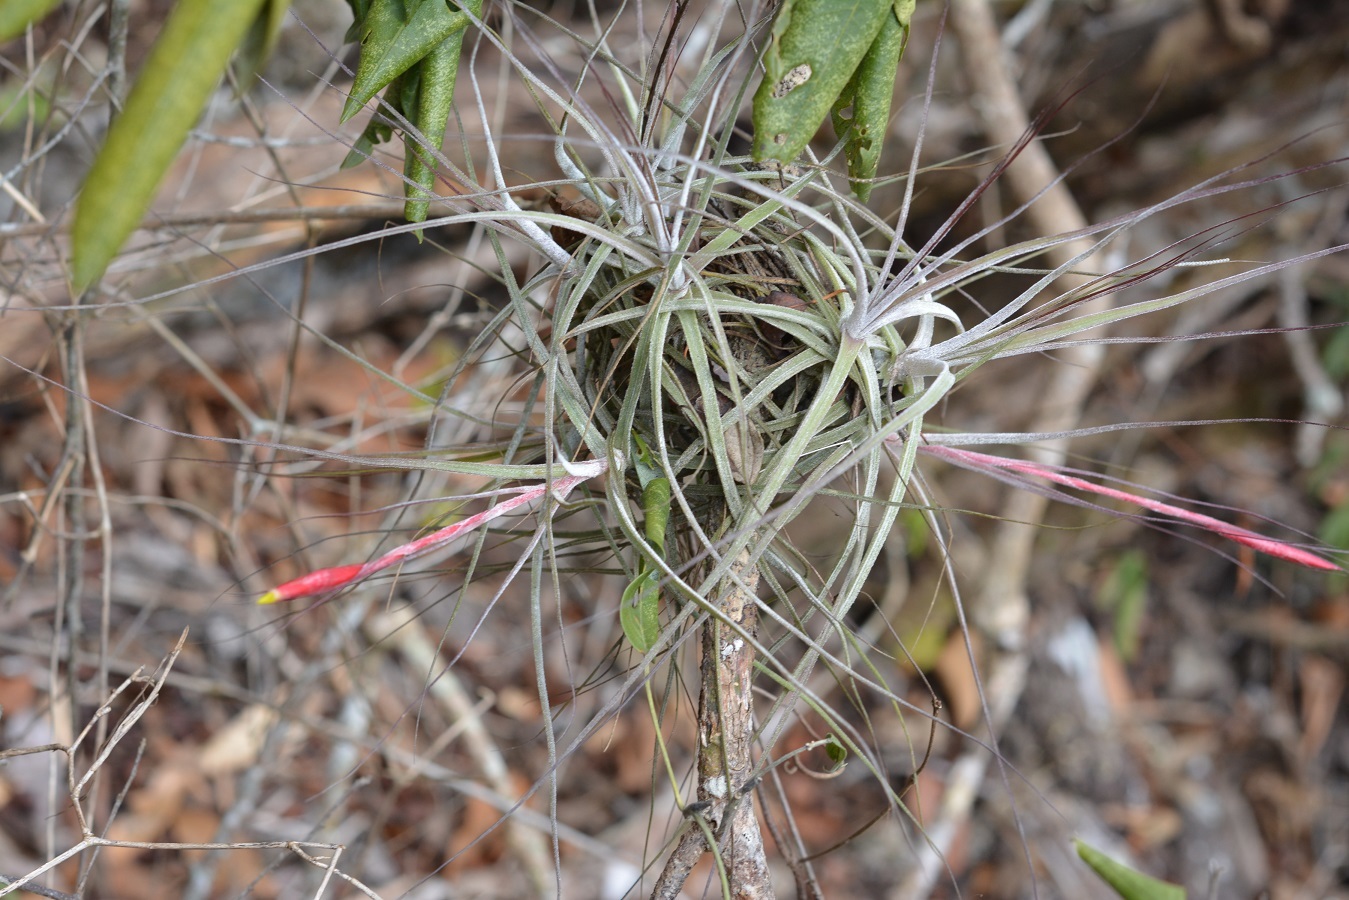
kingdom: Plantae
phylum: Tracheophyta
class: Liliopsida
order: Poales
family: Bromeliaceae
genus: Tillandsia
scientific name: Tillandsia schiedeana
